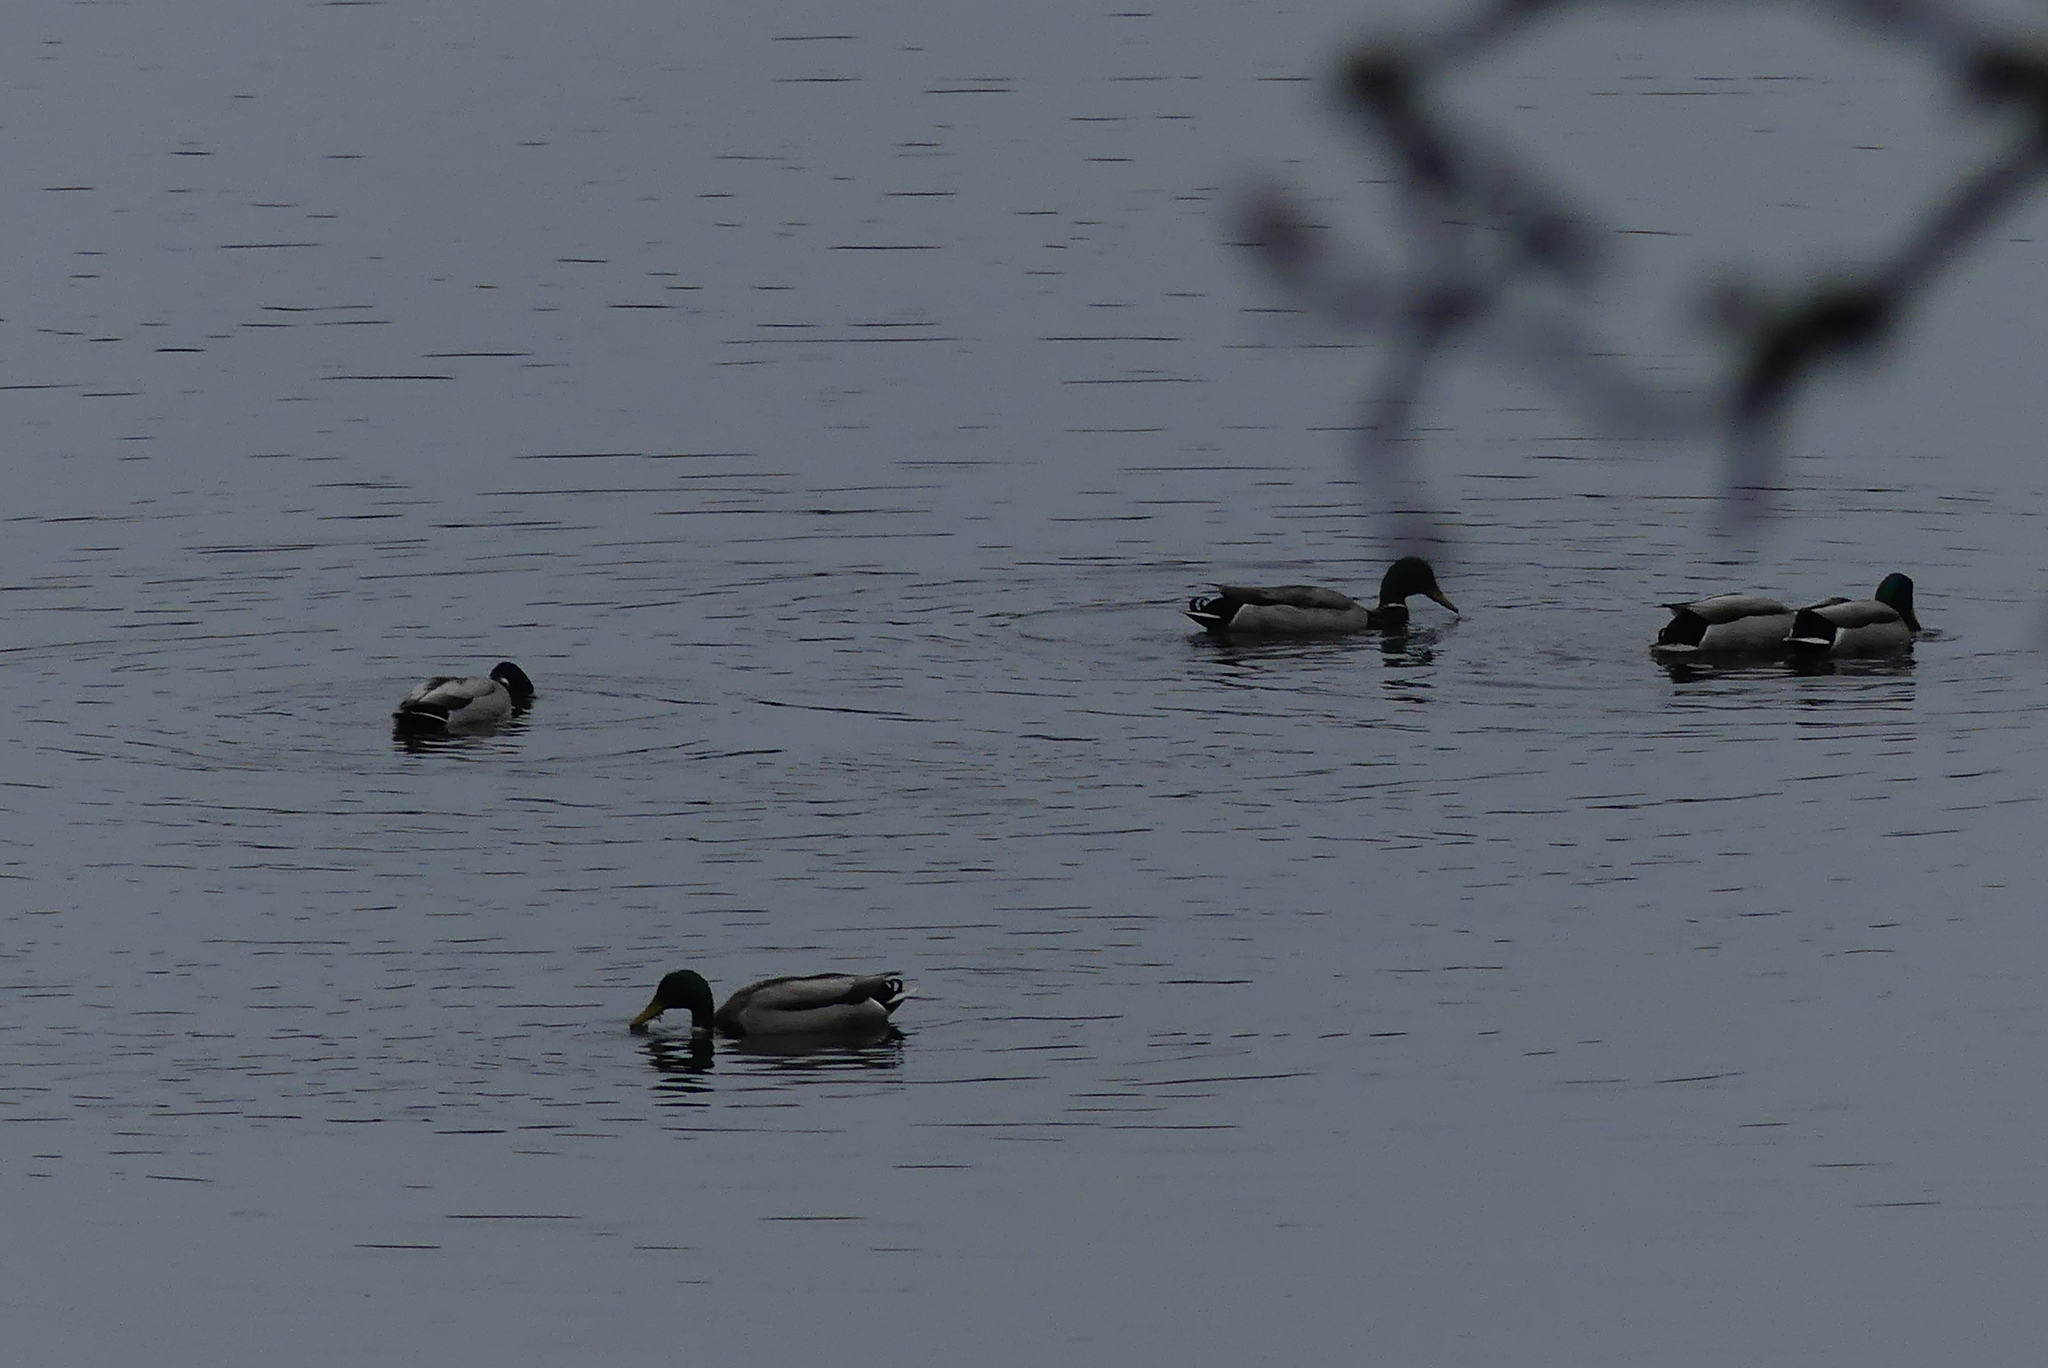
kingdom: Animalia
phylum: Chordata
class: Aves
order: Anseriformes
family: Anatidae
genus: Anas
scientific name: Anas platyrhynchos
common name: Mallard
